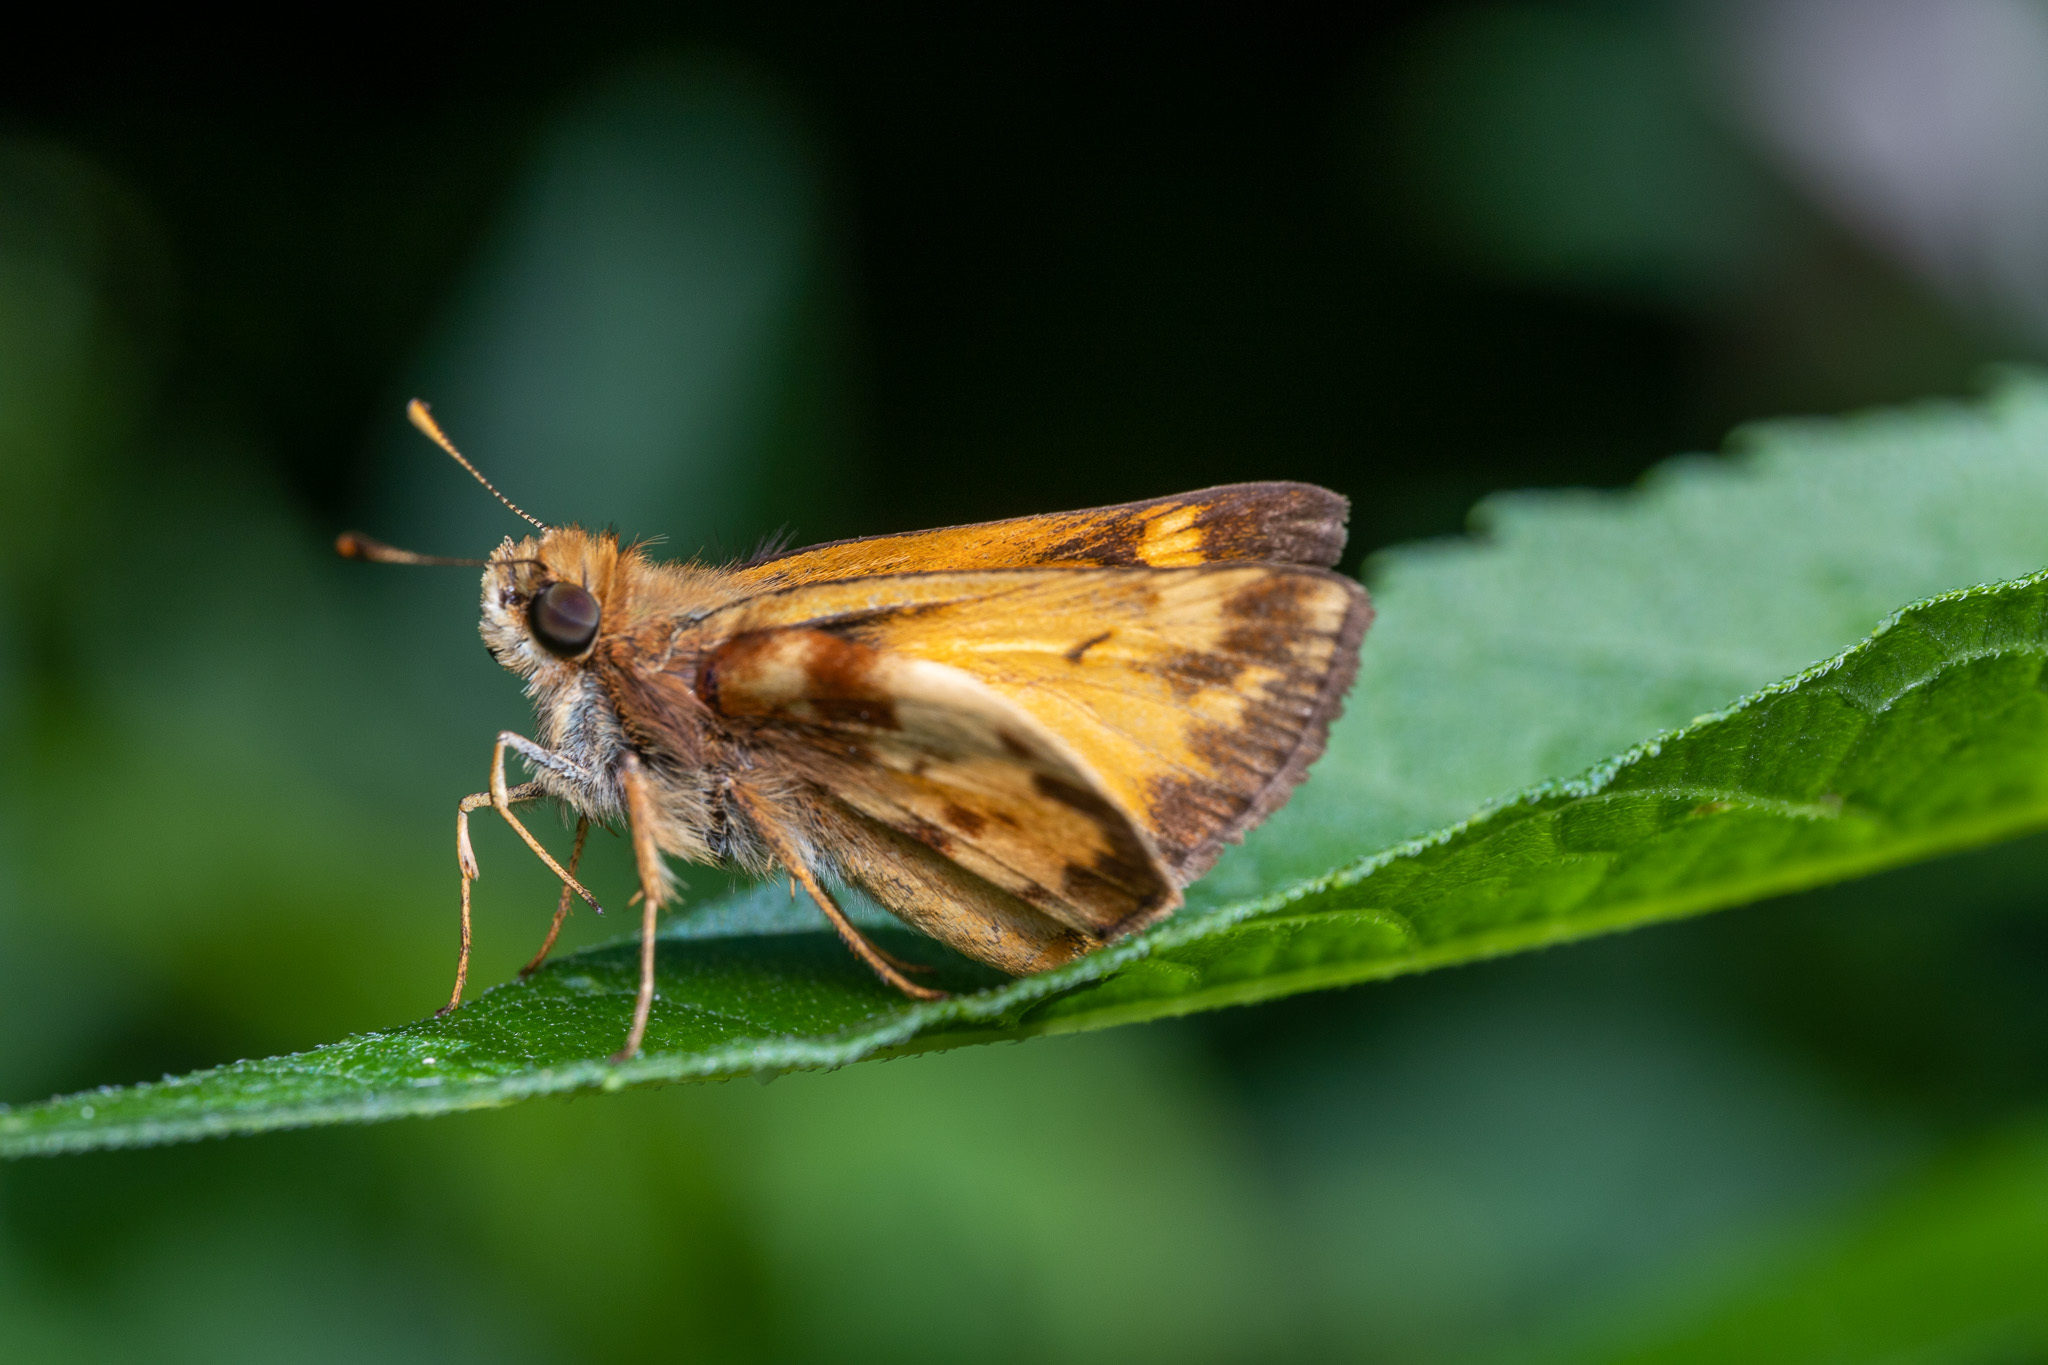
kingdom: Animalia
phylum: Arthropoda
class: Insecta
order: Lepidoptera
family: Hesperiidae
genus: Lon
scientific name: Lon zabulon
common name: Zabulon skipper
